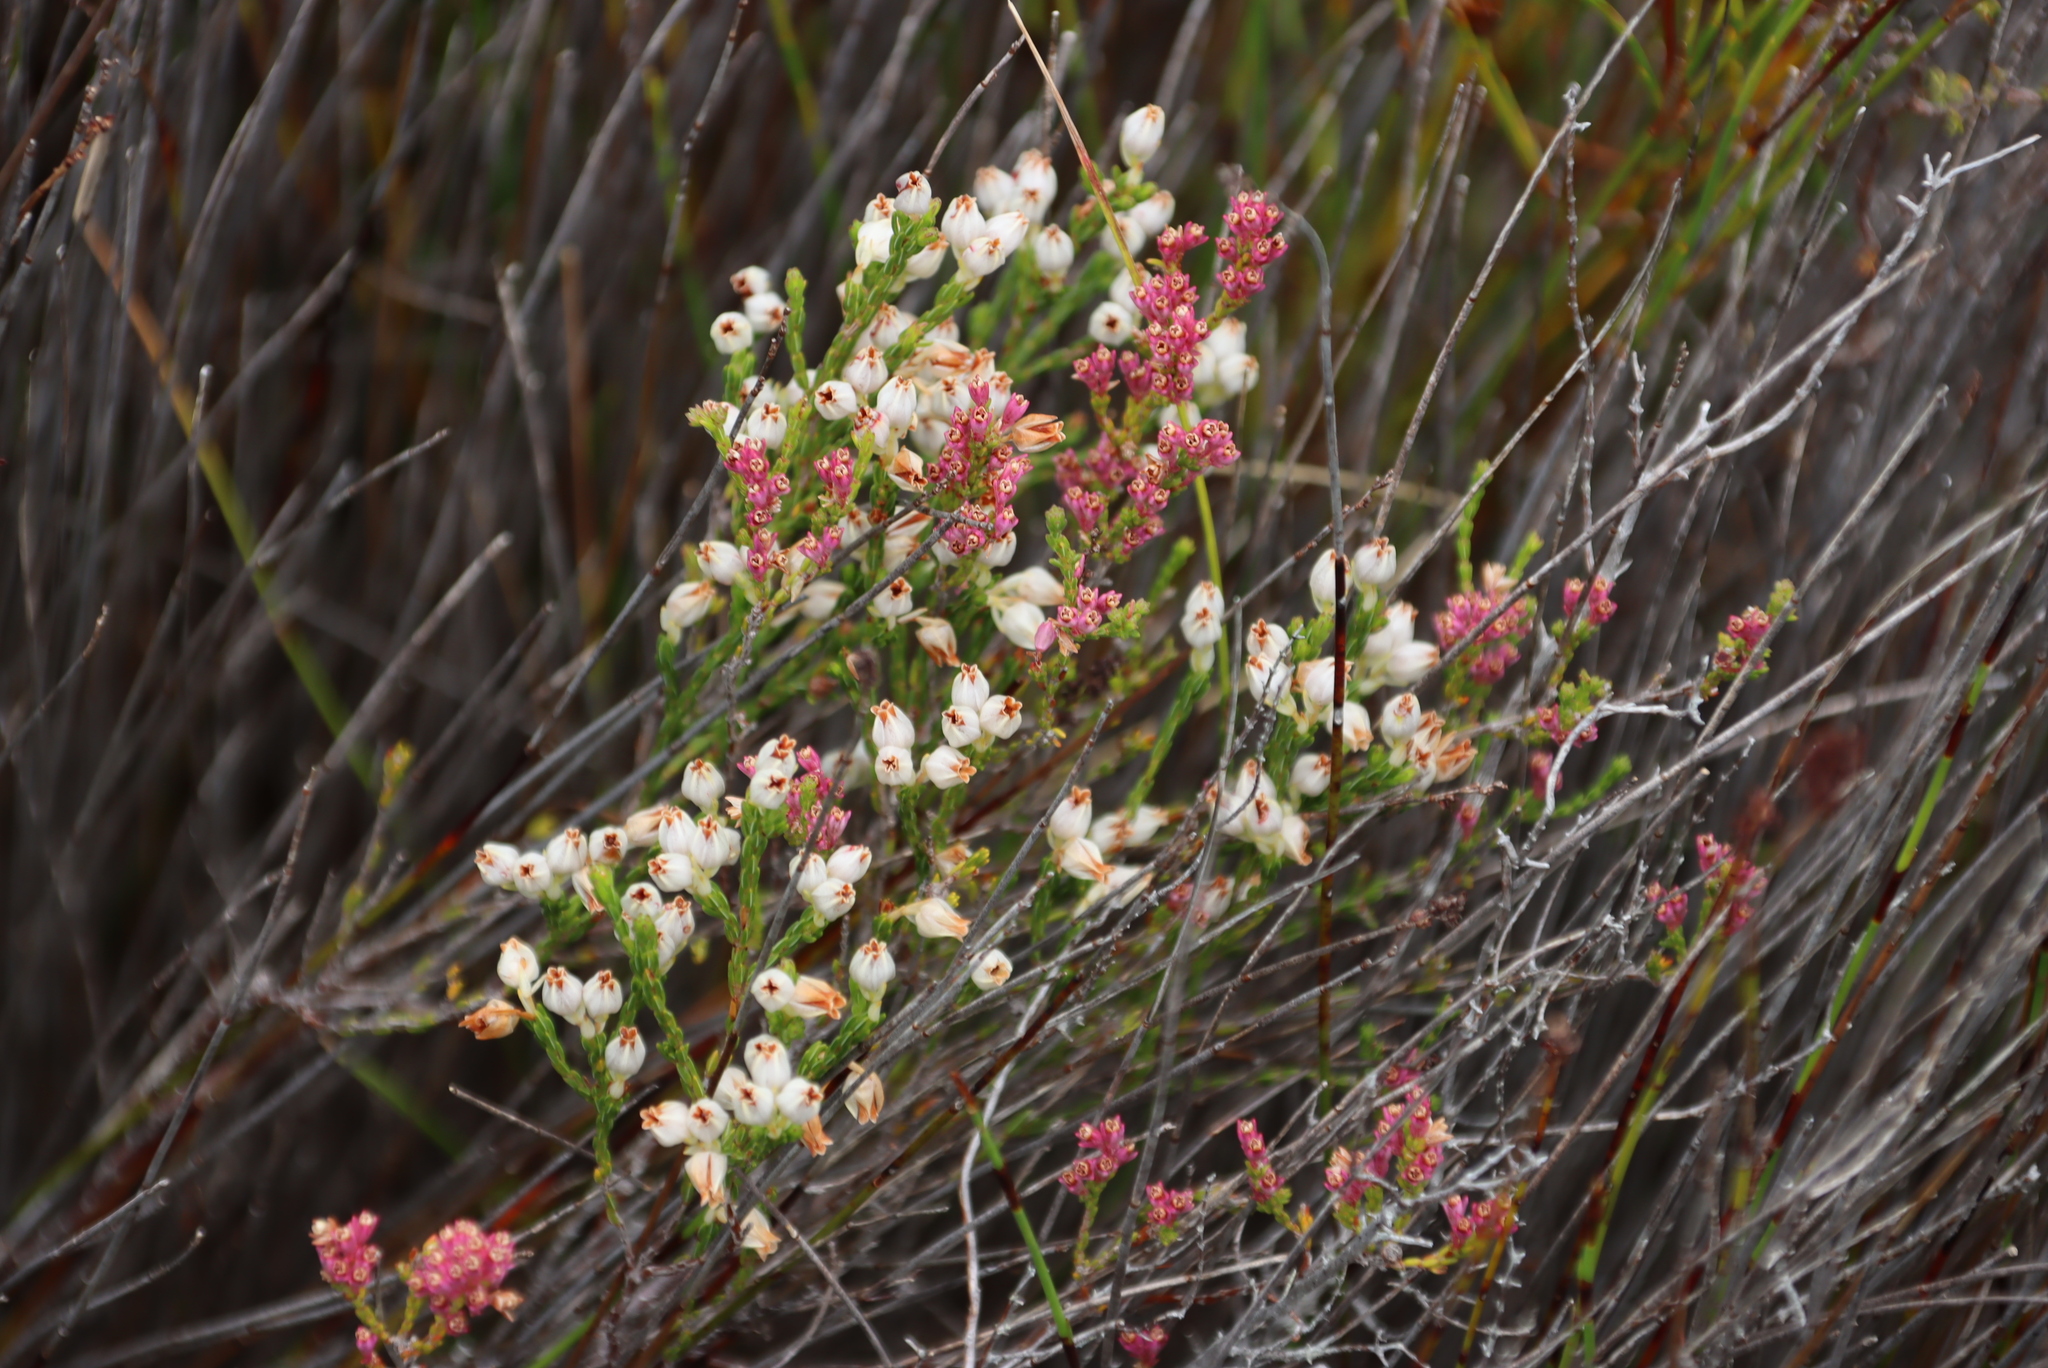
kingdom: Plantae
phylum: Tracheophyta
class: Magnoliopsida
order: Ericales
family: Ericaceae
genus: Erica
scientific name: Erica palliiflora
